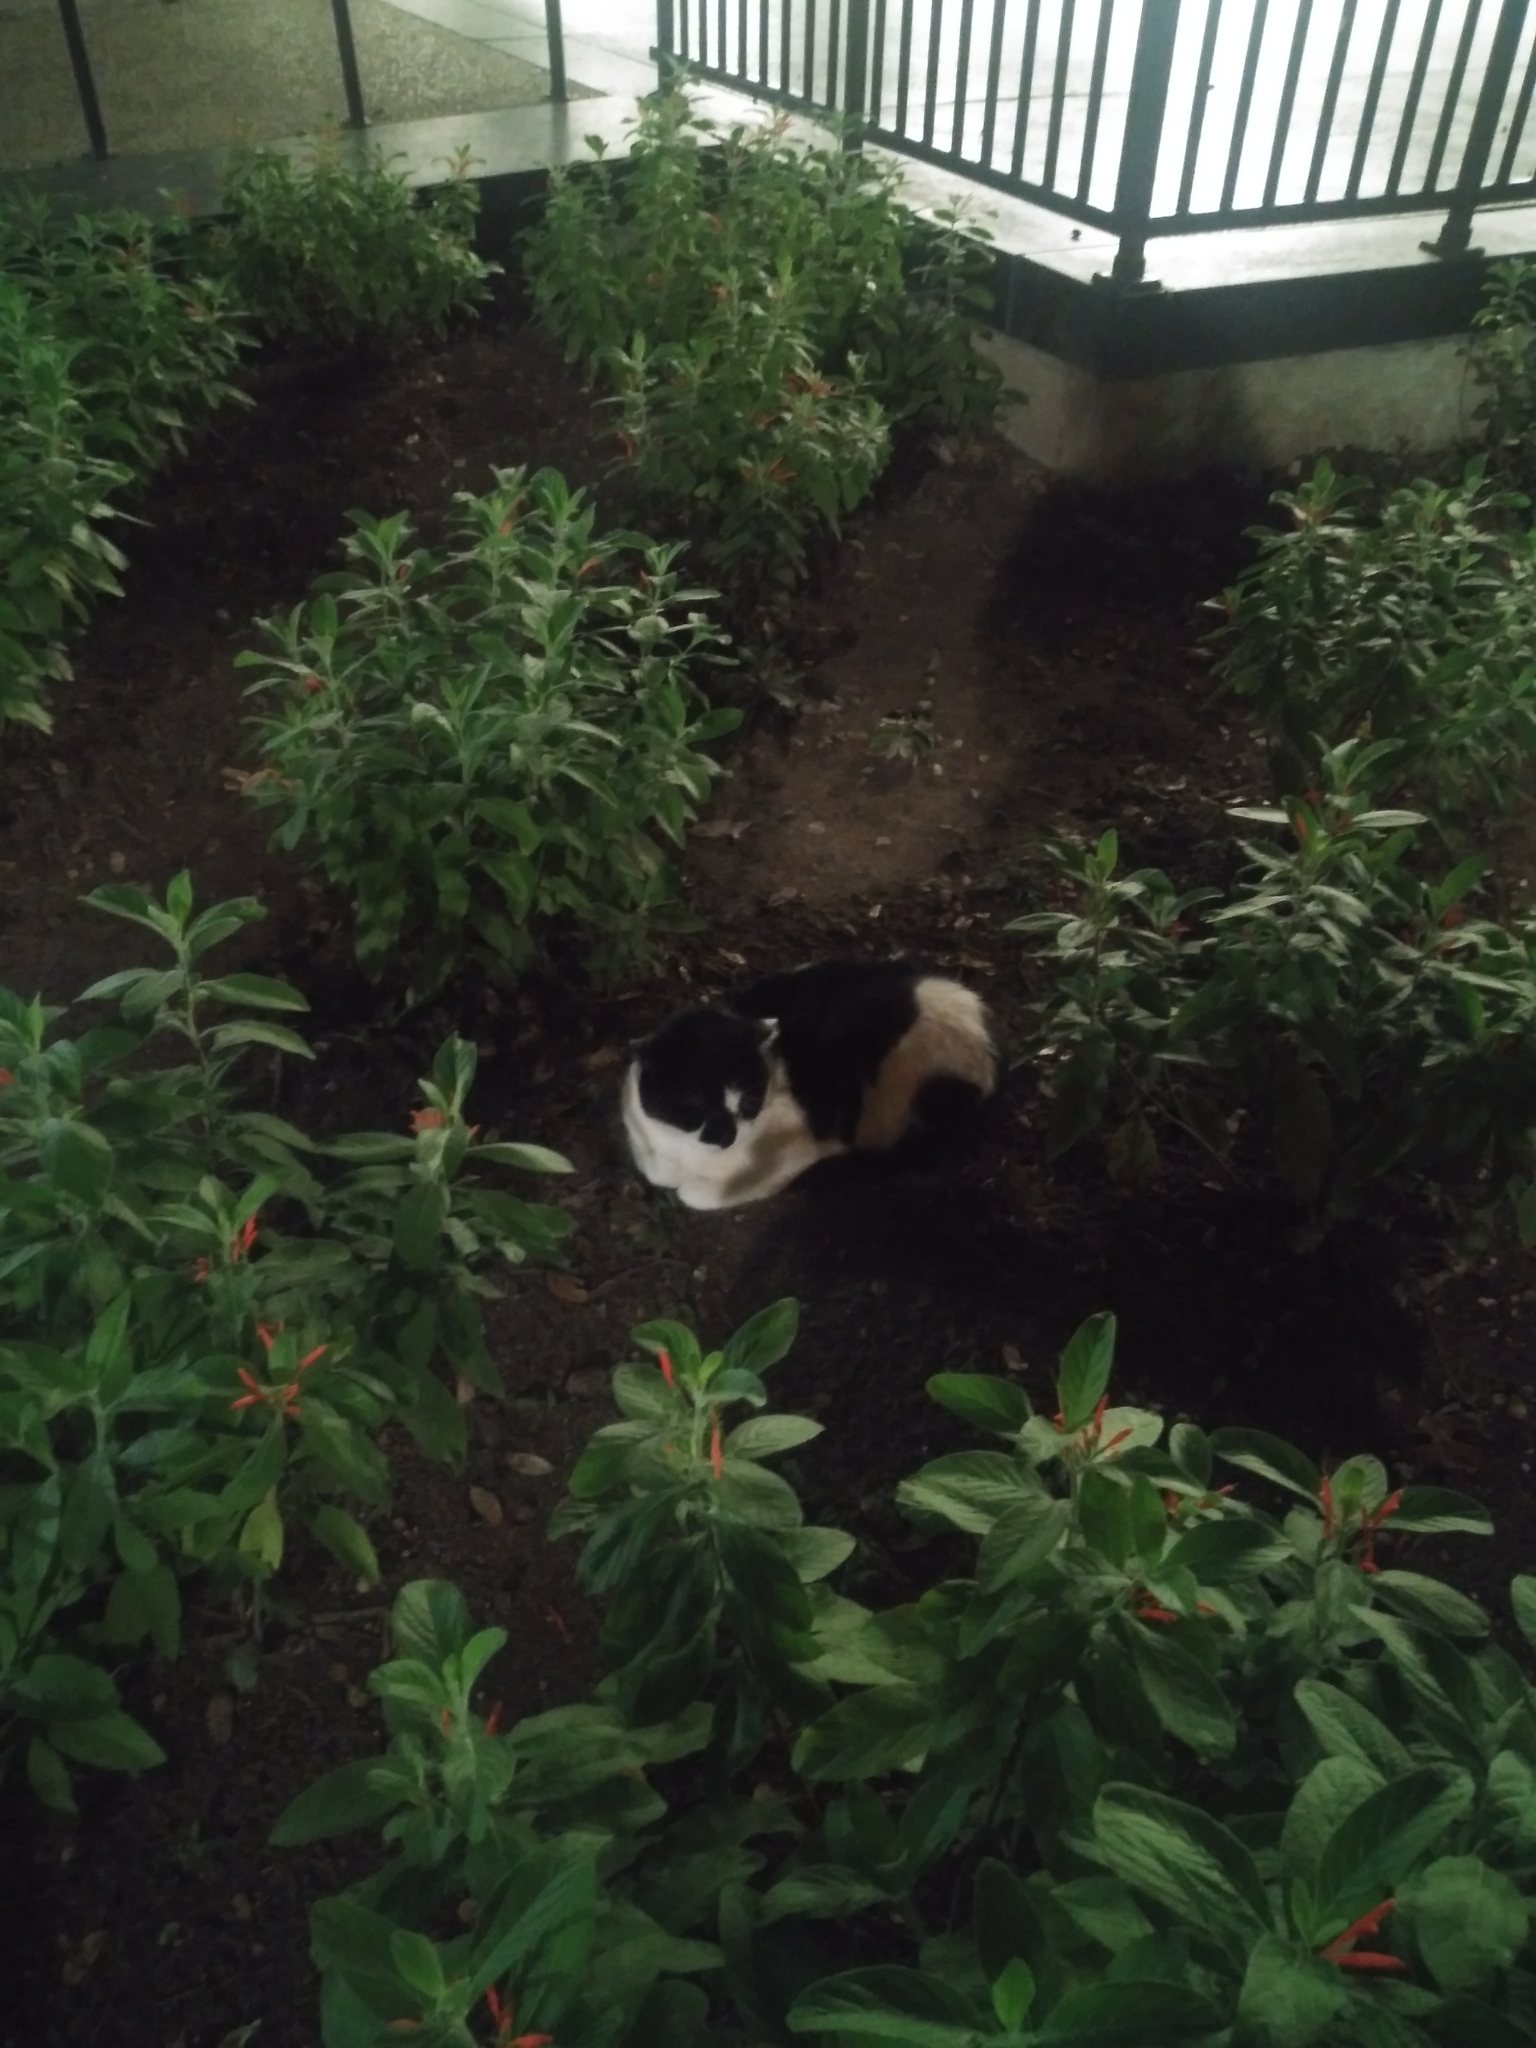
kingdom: Animalia
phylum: Chordata
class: Mammalia
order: Carnivora
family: Felidae
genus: Felis
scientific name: Felis catus
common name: Domestic cat
